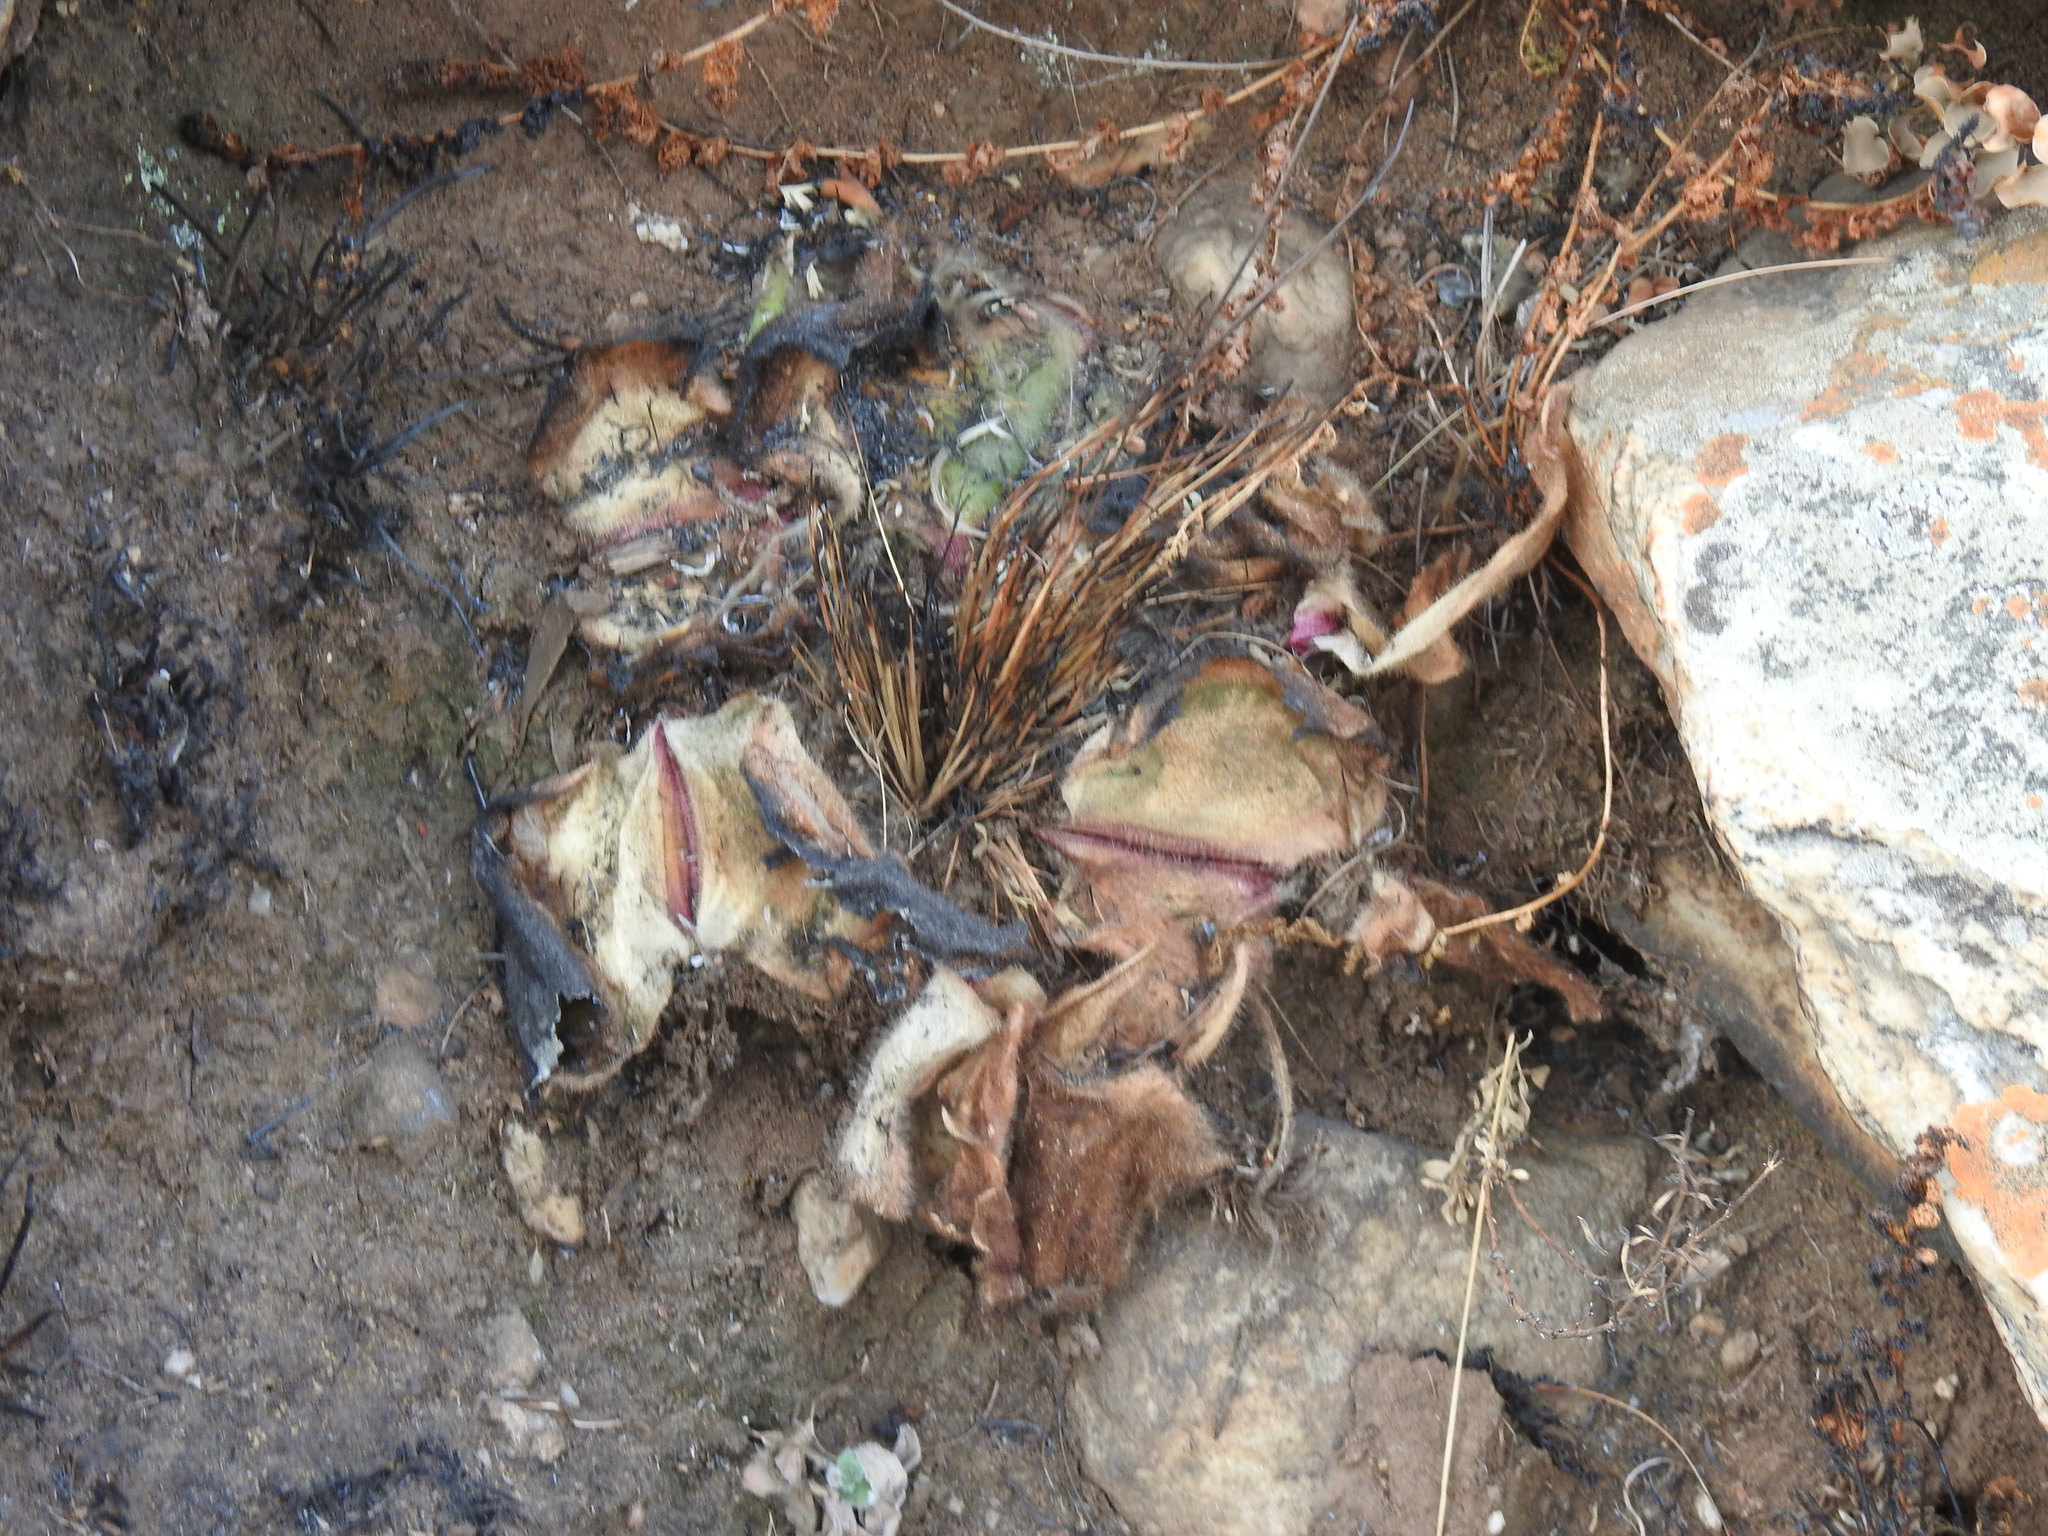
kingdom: Plantae
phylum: Tracheophyta
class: Liliopsida
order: Asparagales
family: Amaryllidaceae
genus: Haemanthus
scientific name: Haemanthus humilis
